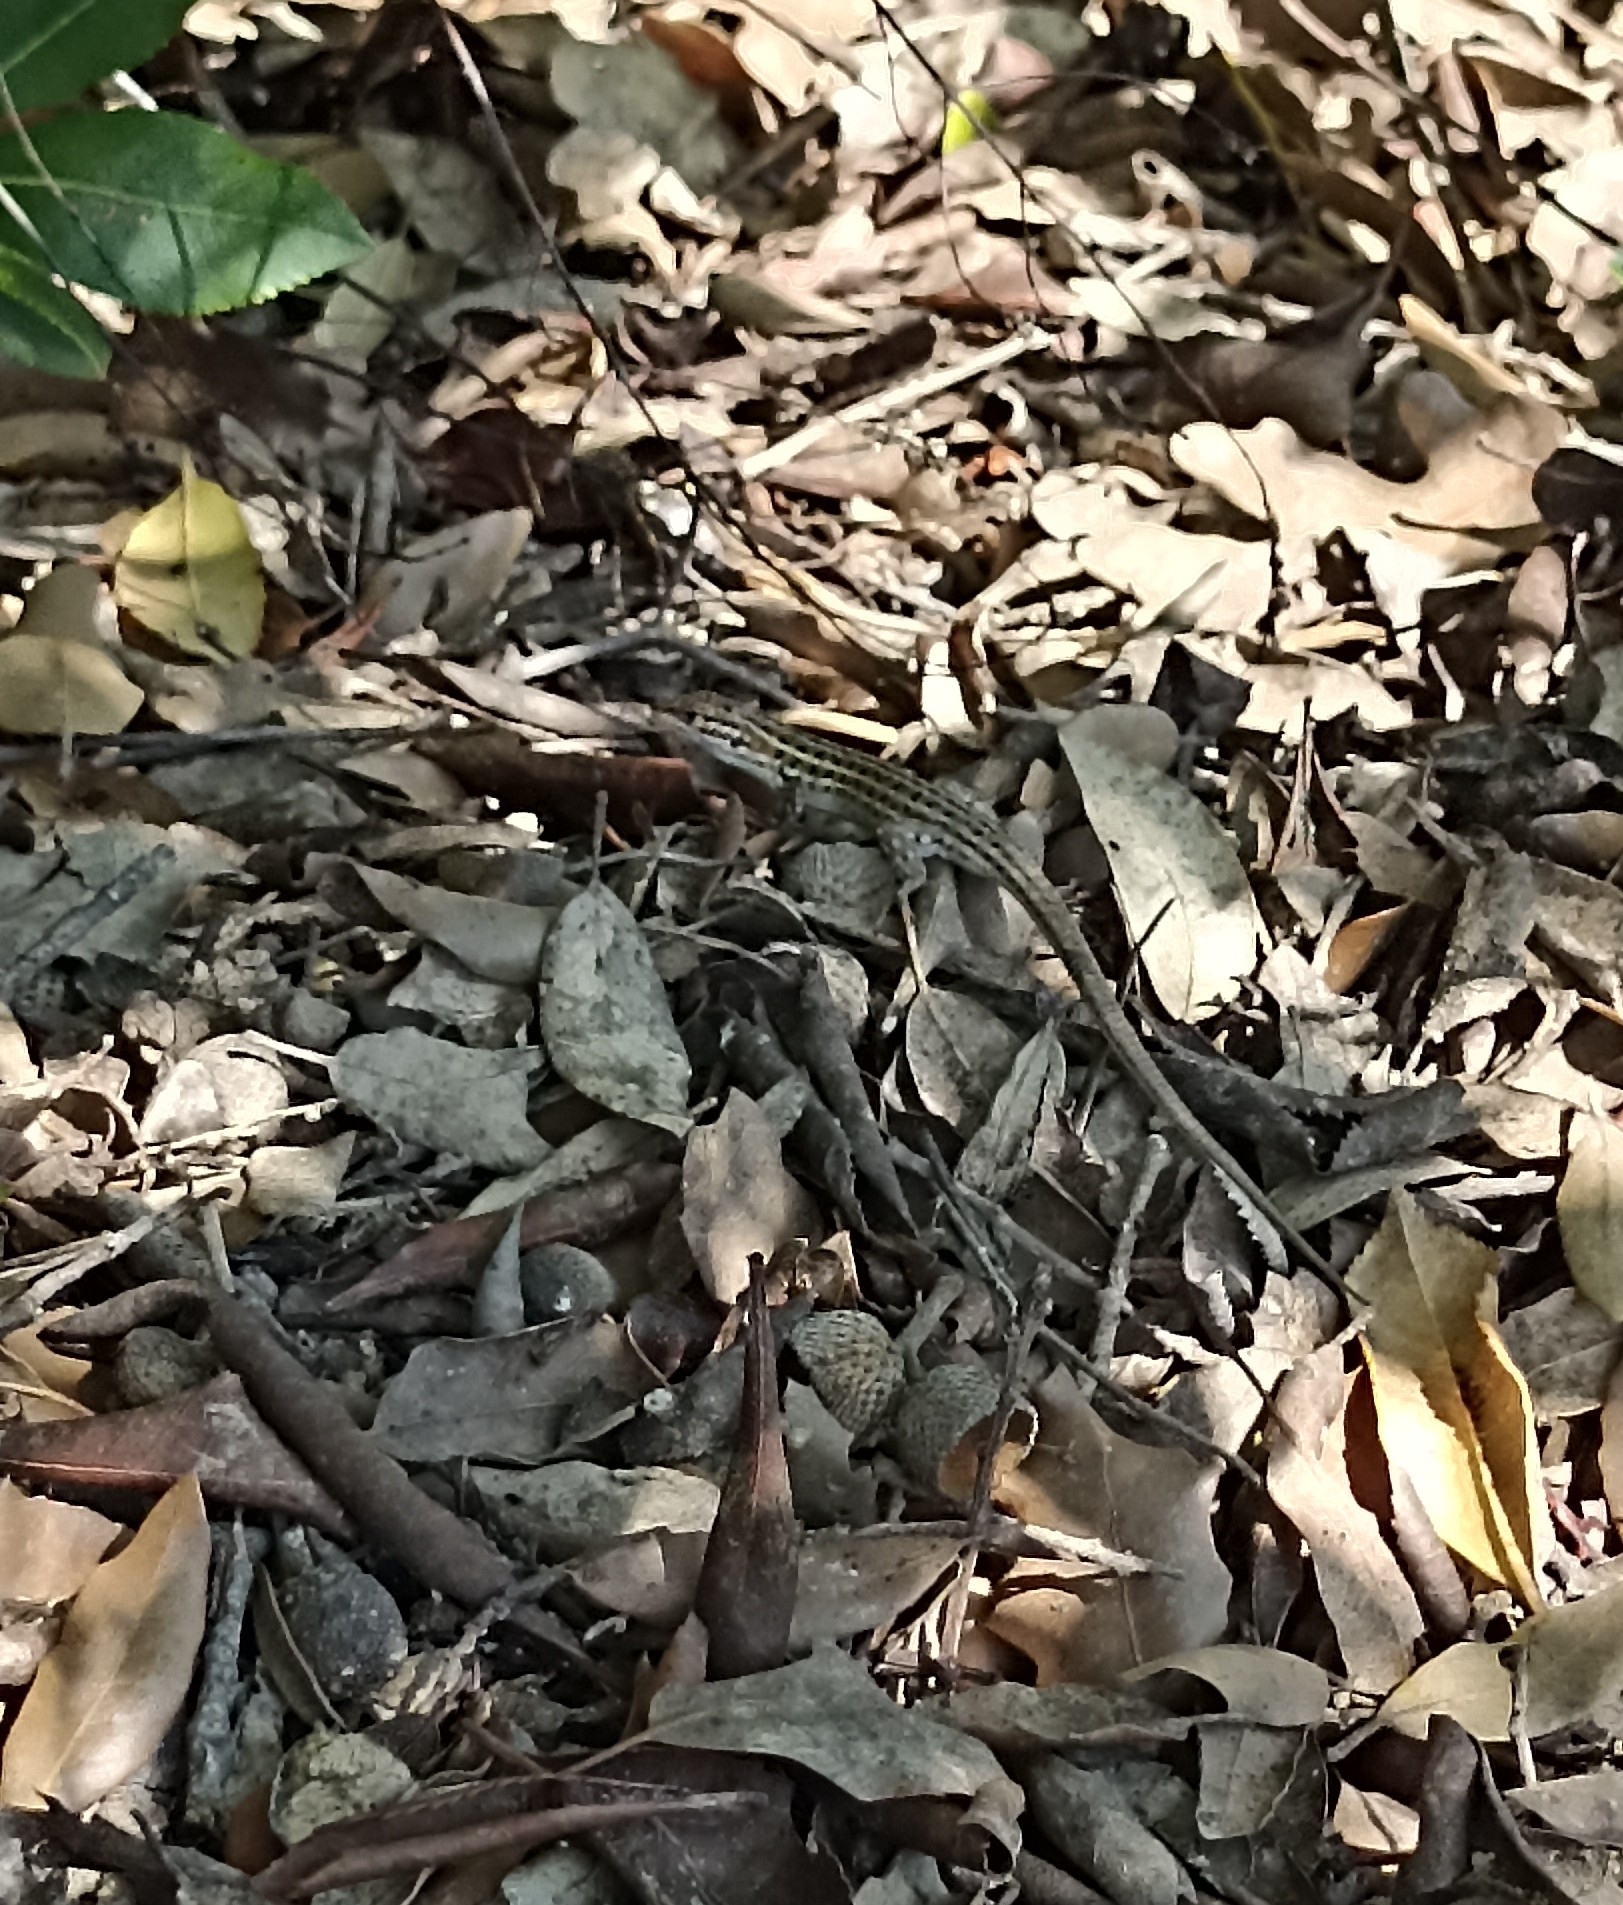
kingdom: Animalia
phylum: Chordata
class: Squamata
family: Lacertidae
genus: Psammodromus
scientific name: Psammodromus edwarsianus
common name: East iberian psammodromus
